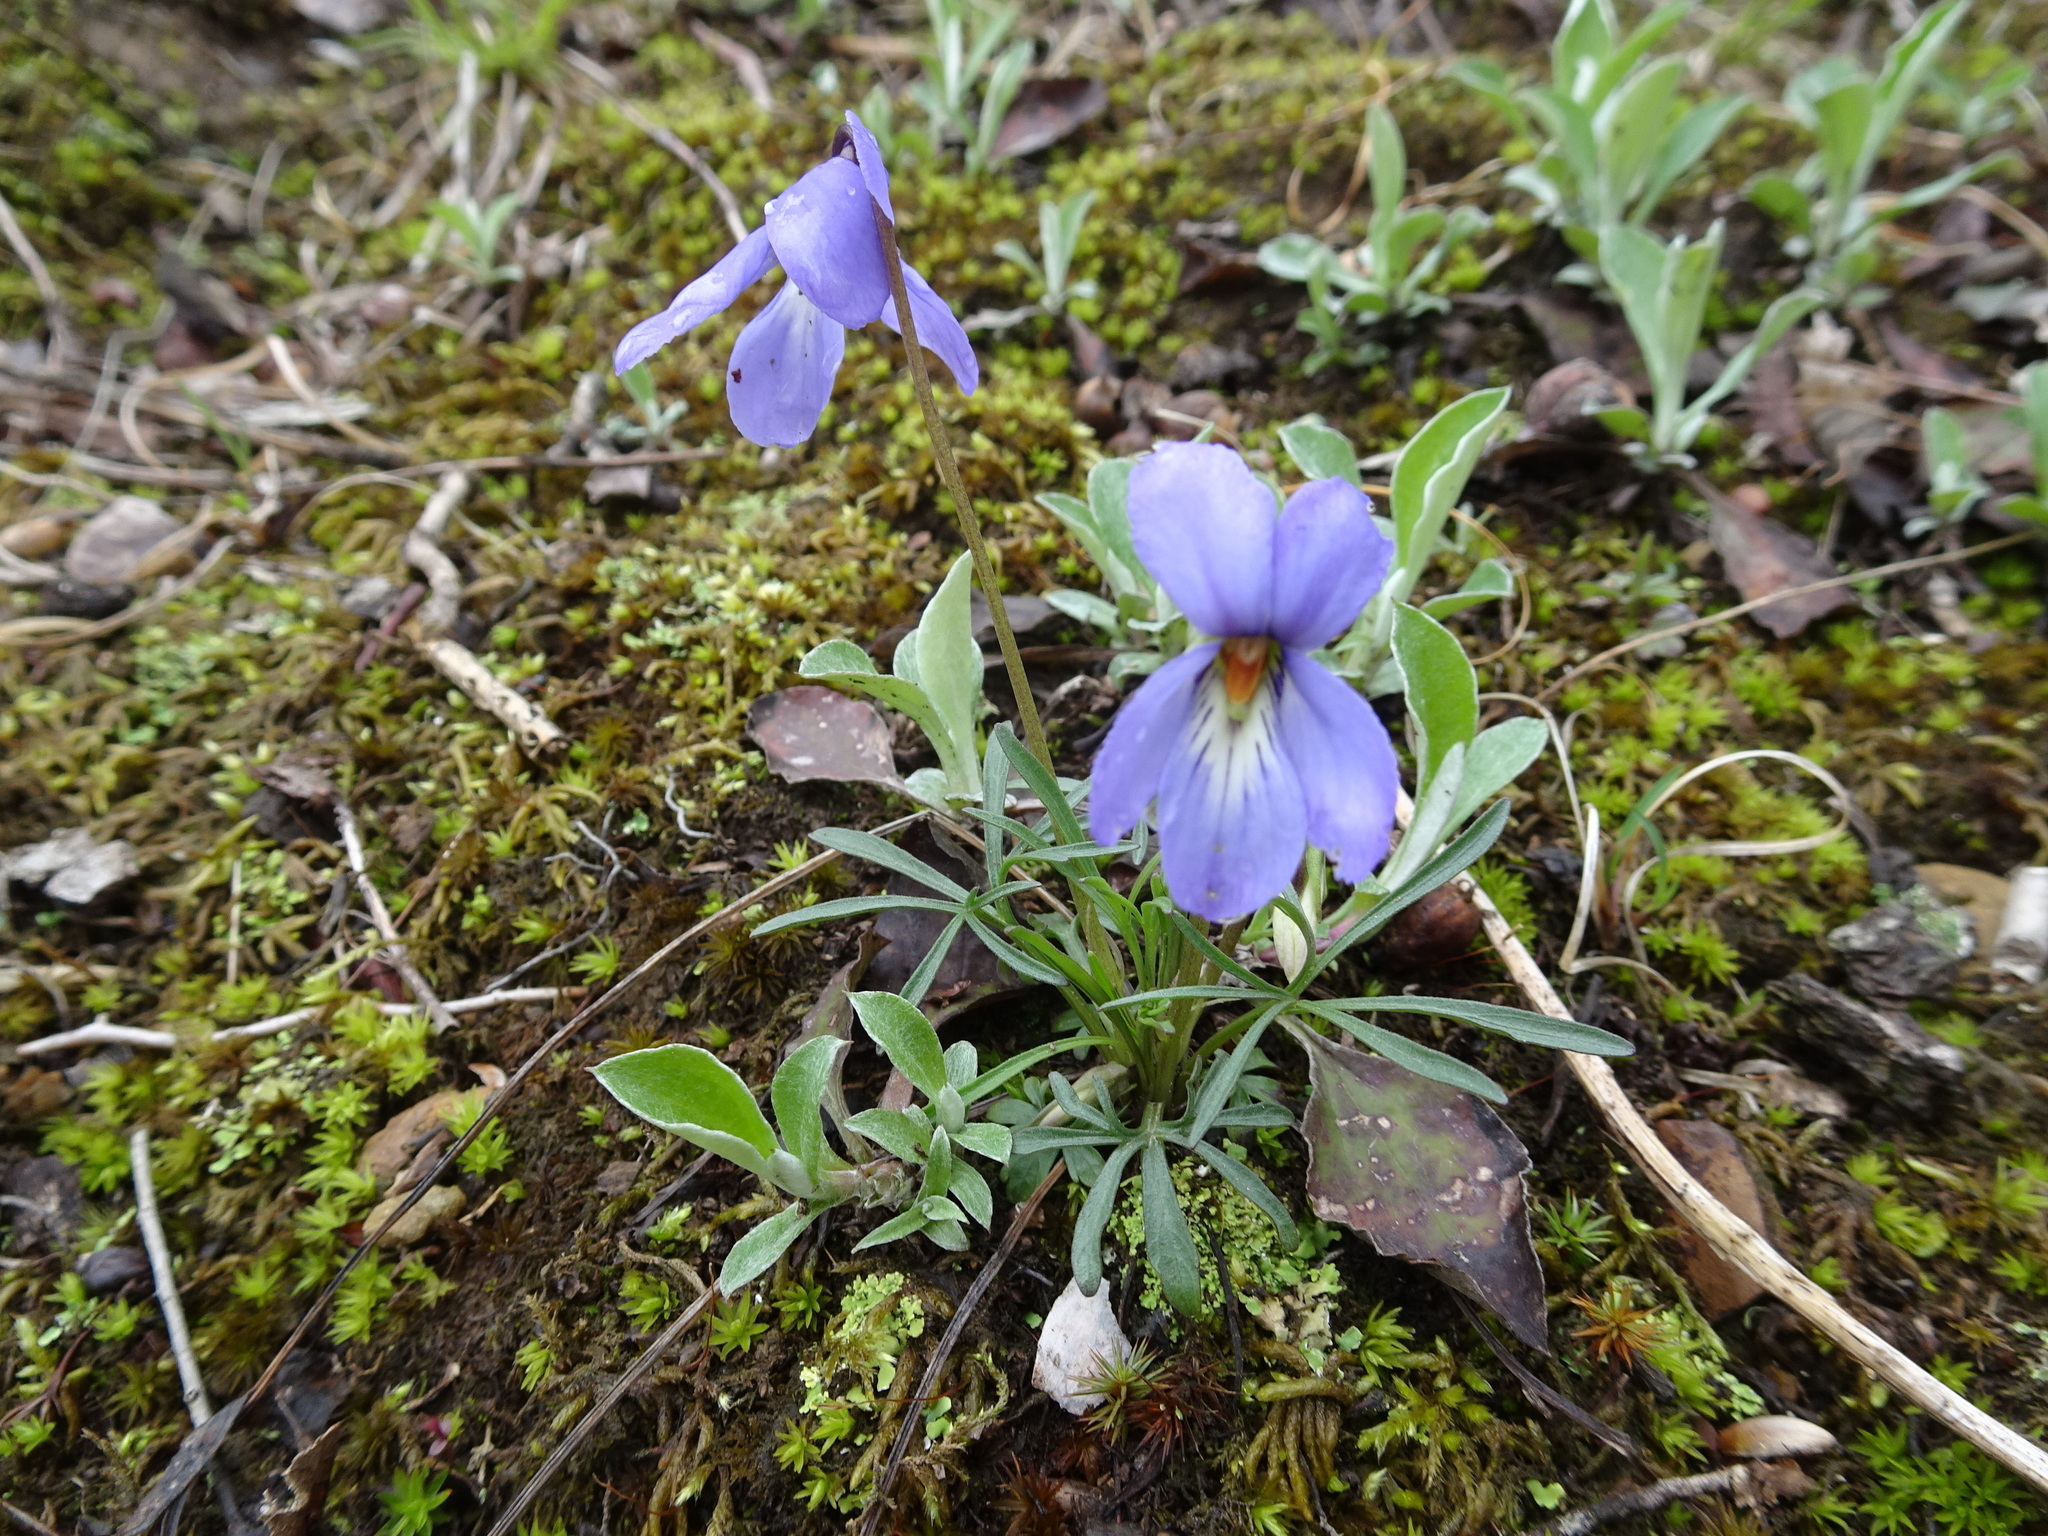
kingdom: Plantae
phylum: Tracheophyta
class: Magnoliopsida
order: Malpighiales
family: Violaceae
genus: Viola
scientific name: Viola pedata
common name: Pansy violet
